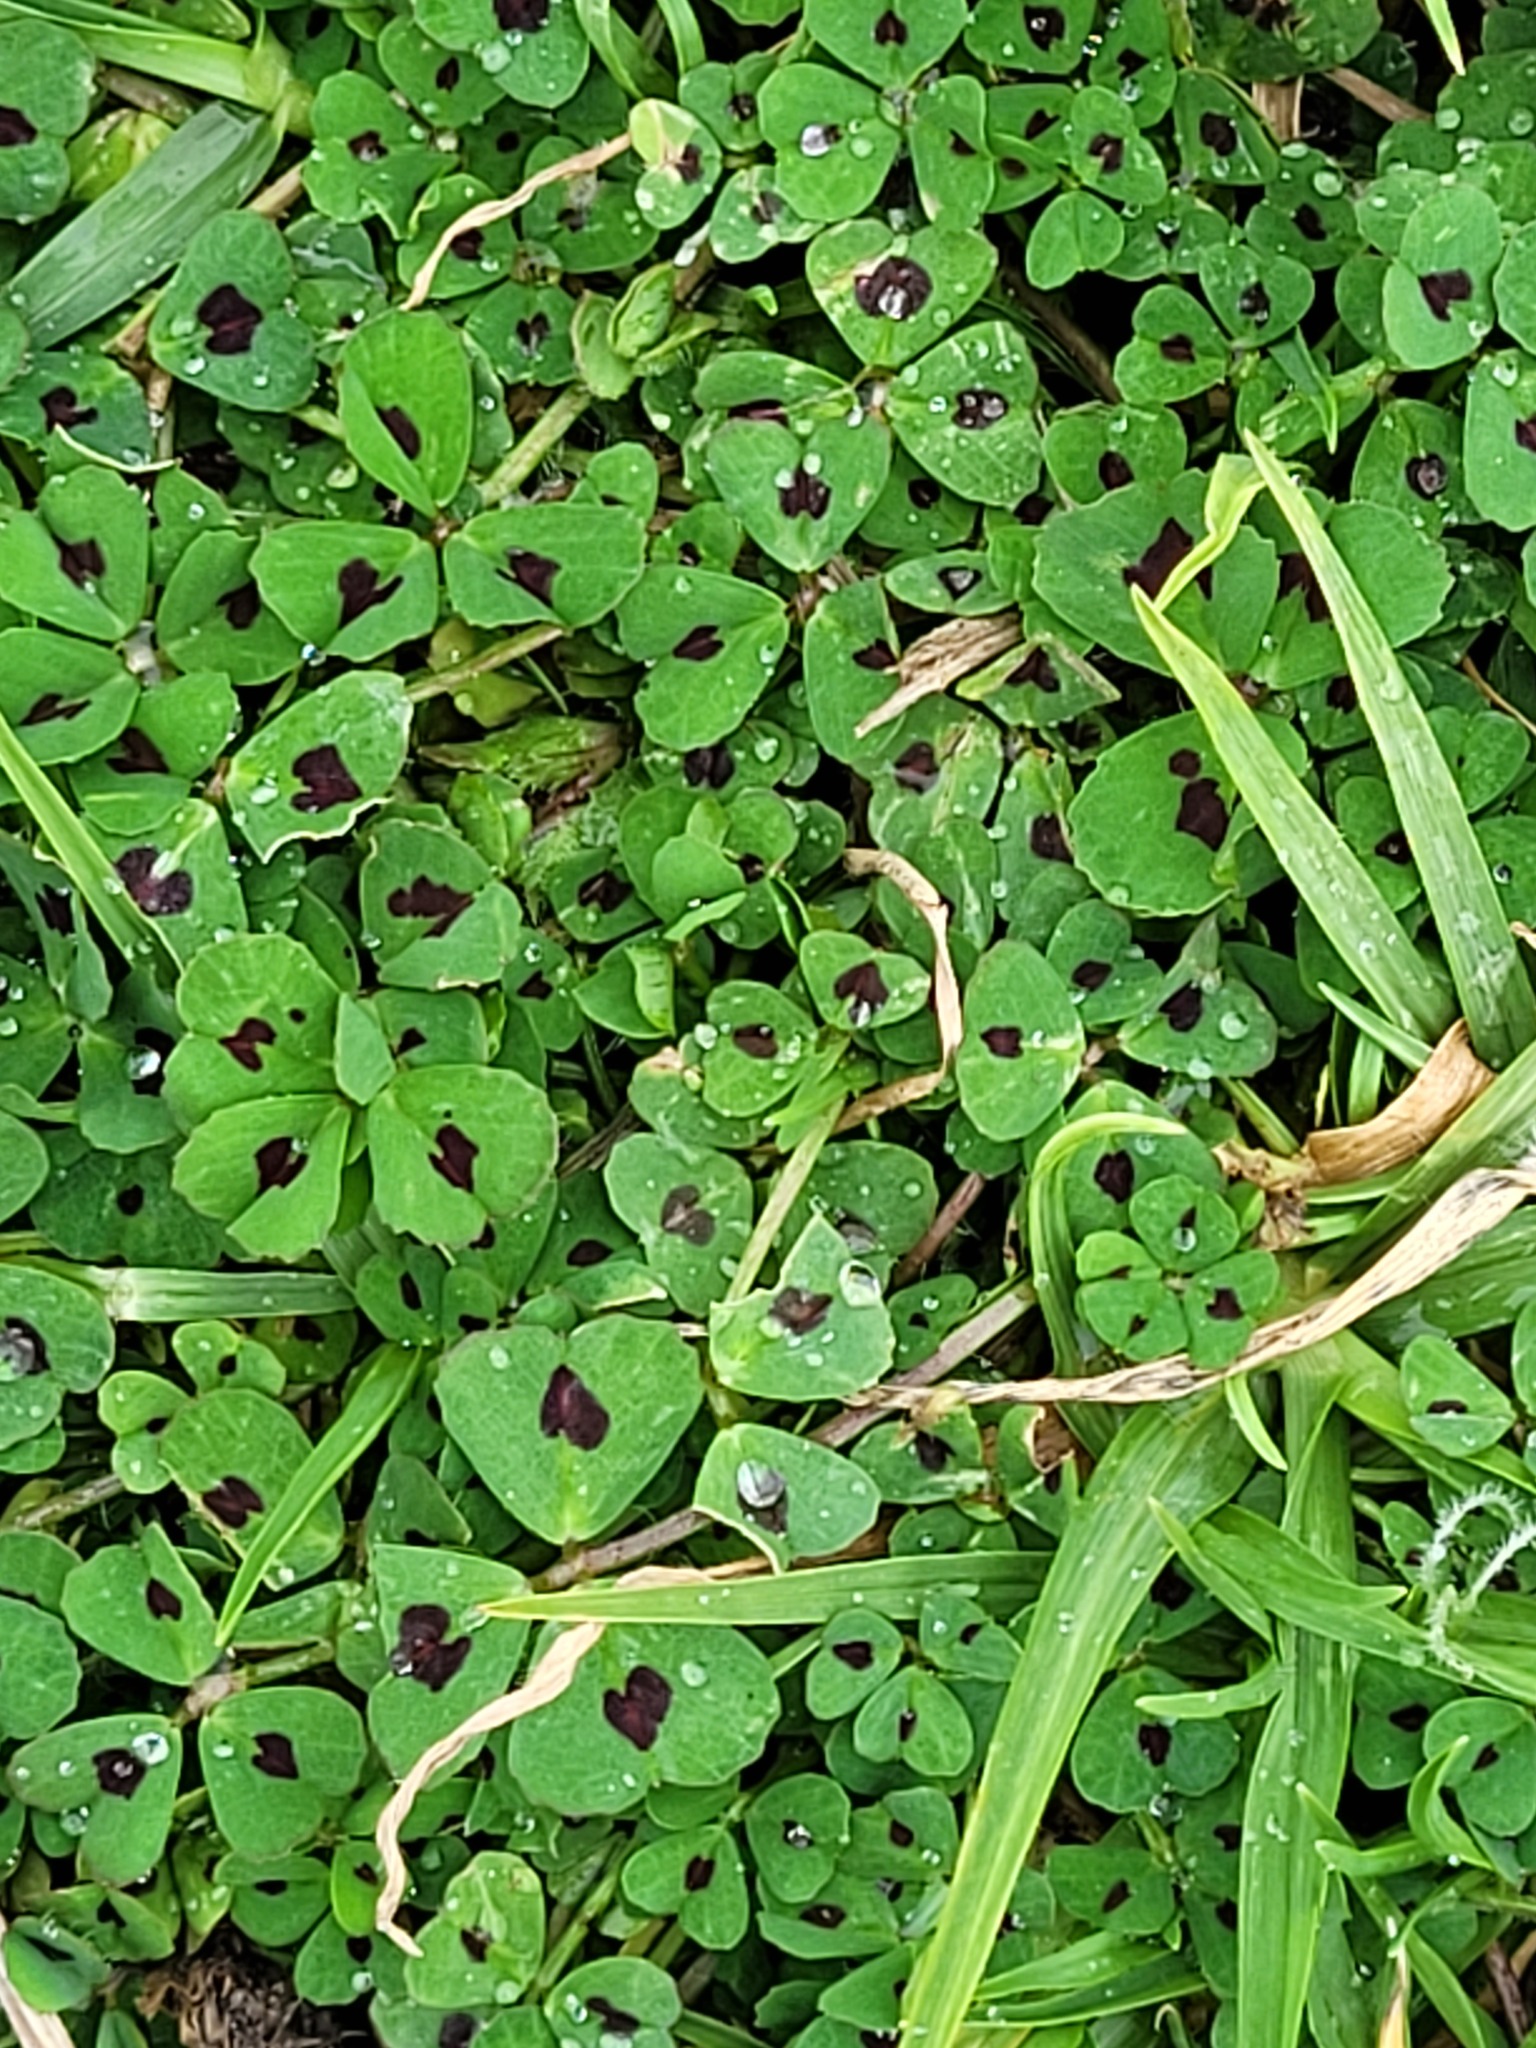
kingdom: Plantae
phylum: Tracheophyta
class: Magnoliopsida
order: Fabales
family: Fabaceae
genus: Medicago
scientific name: Medicago arabica
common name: Spotted medick
